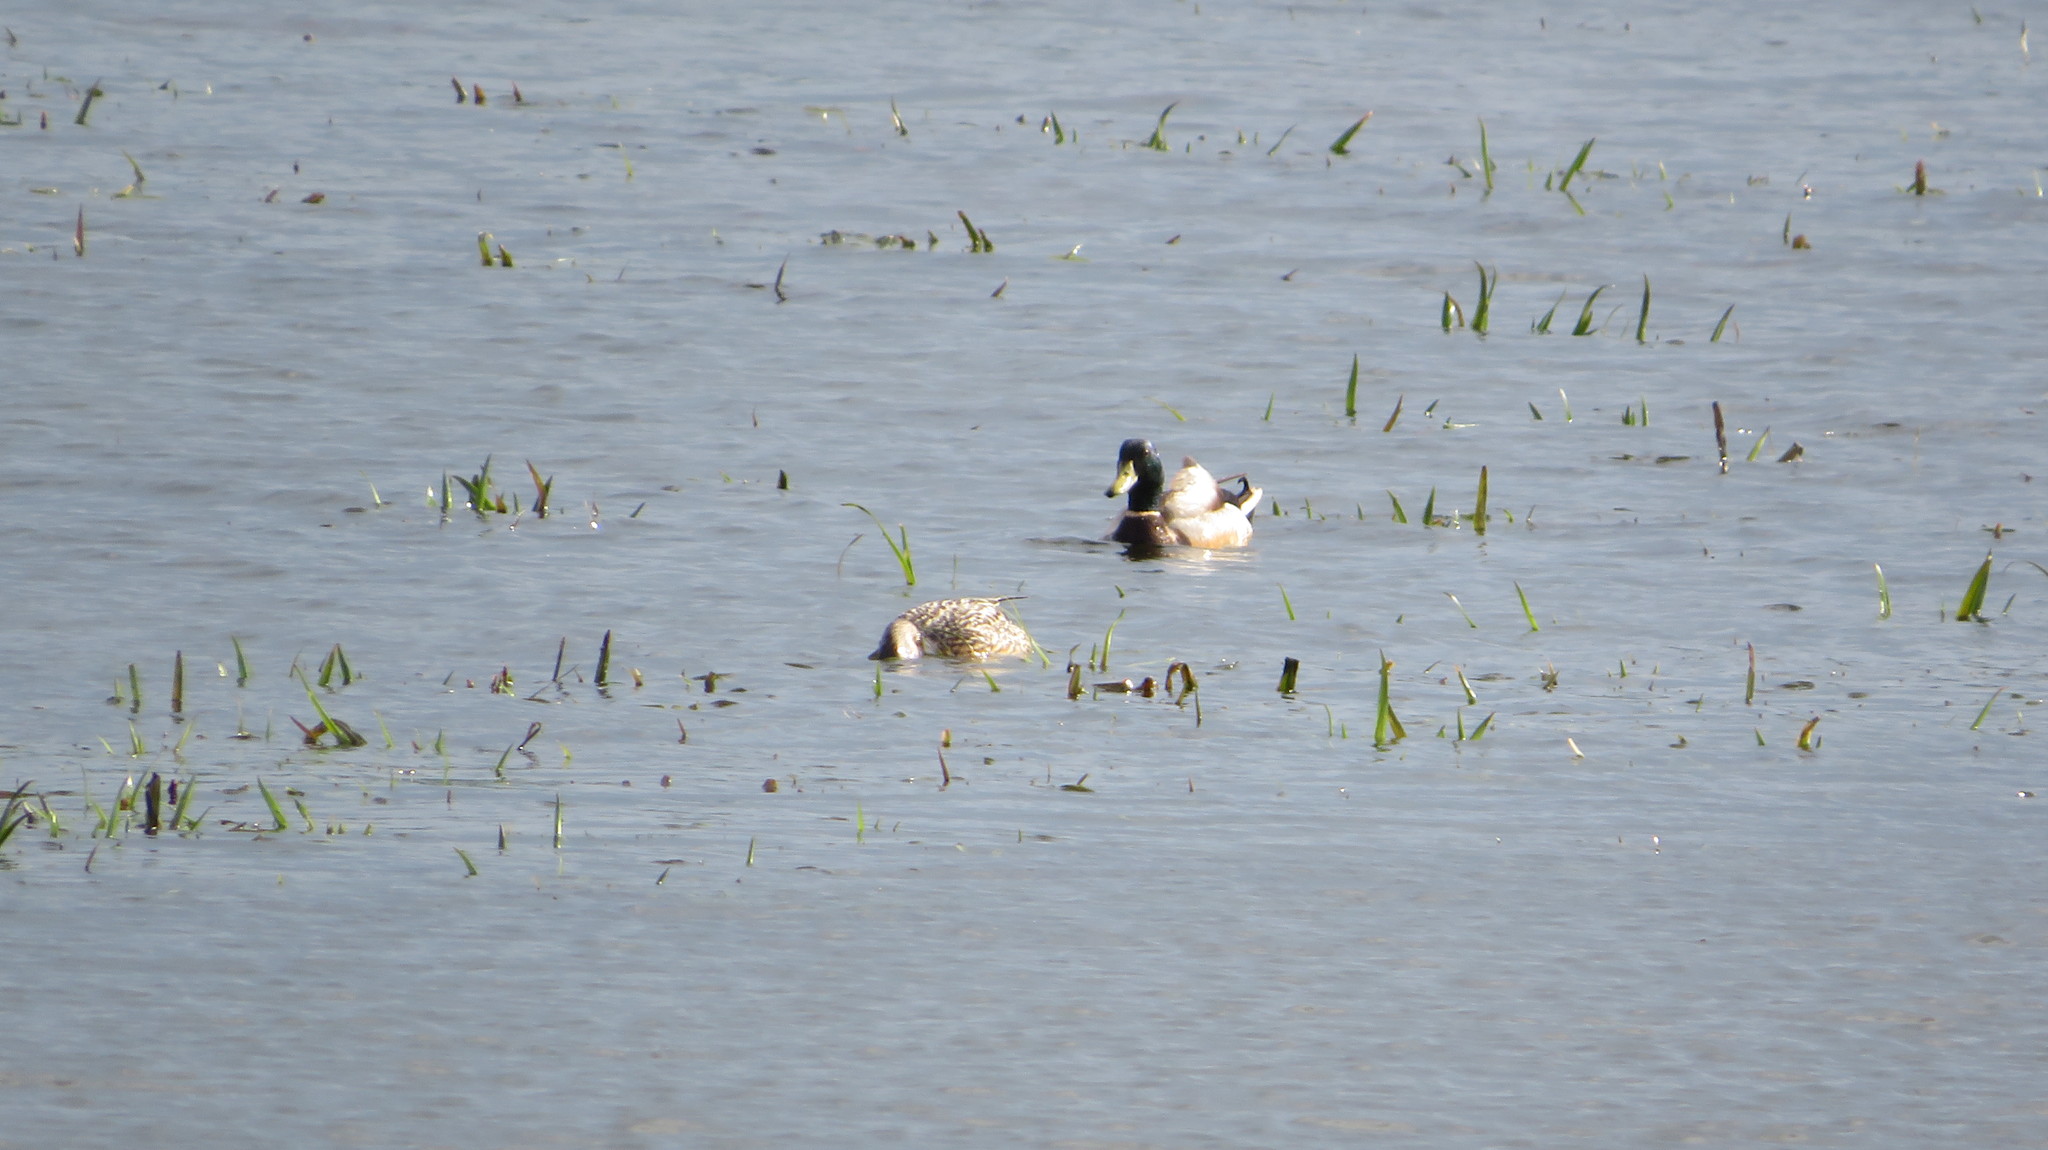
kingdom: Animalia
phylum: Chordata
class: Aves
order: Anseriformes
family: Anatidae
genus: Anas
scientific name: Anas platyrhynchos
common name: Mallard
